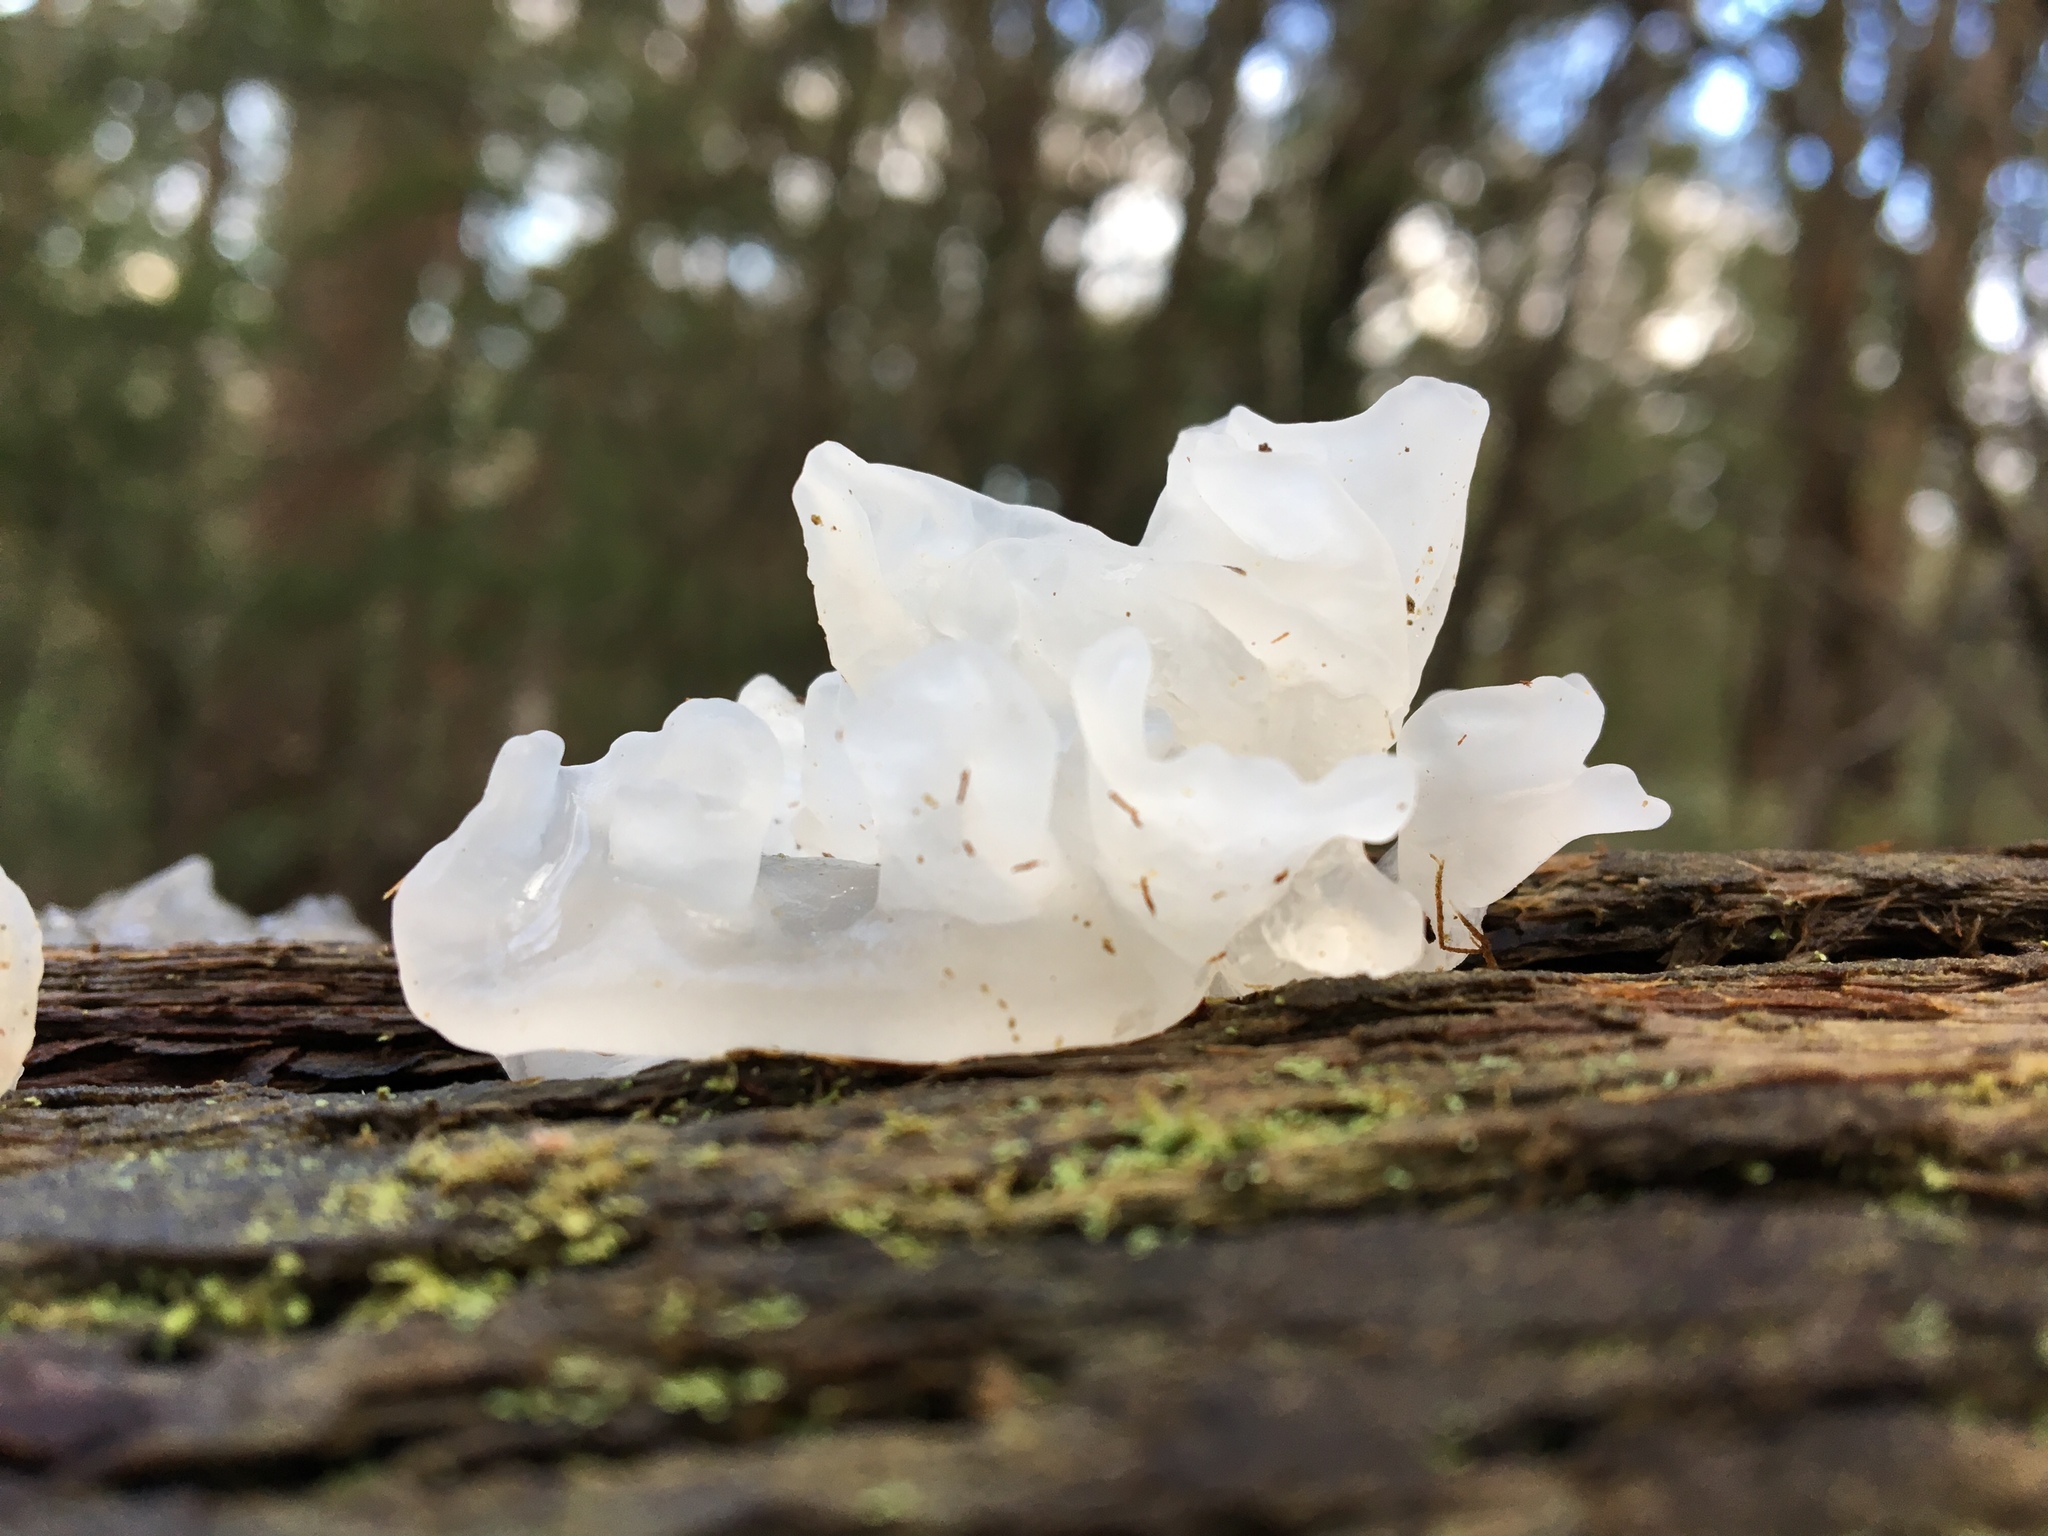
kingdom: Fungi
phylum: Basidiomycota
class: Tremellomycetes
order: Tremellales
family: Tremellaceae
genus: Tremella
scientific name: Tremella fuciformis
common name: Snow fungus
